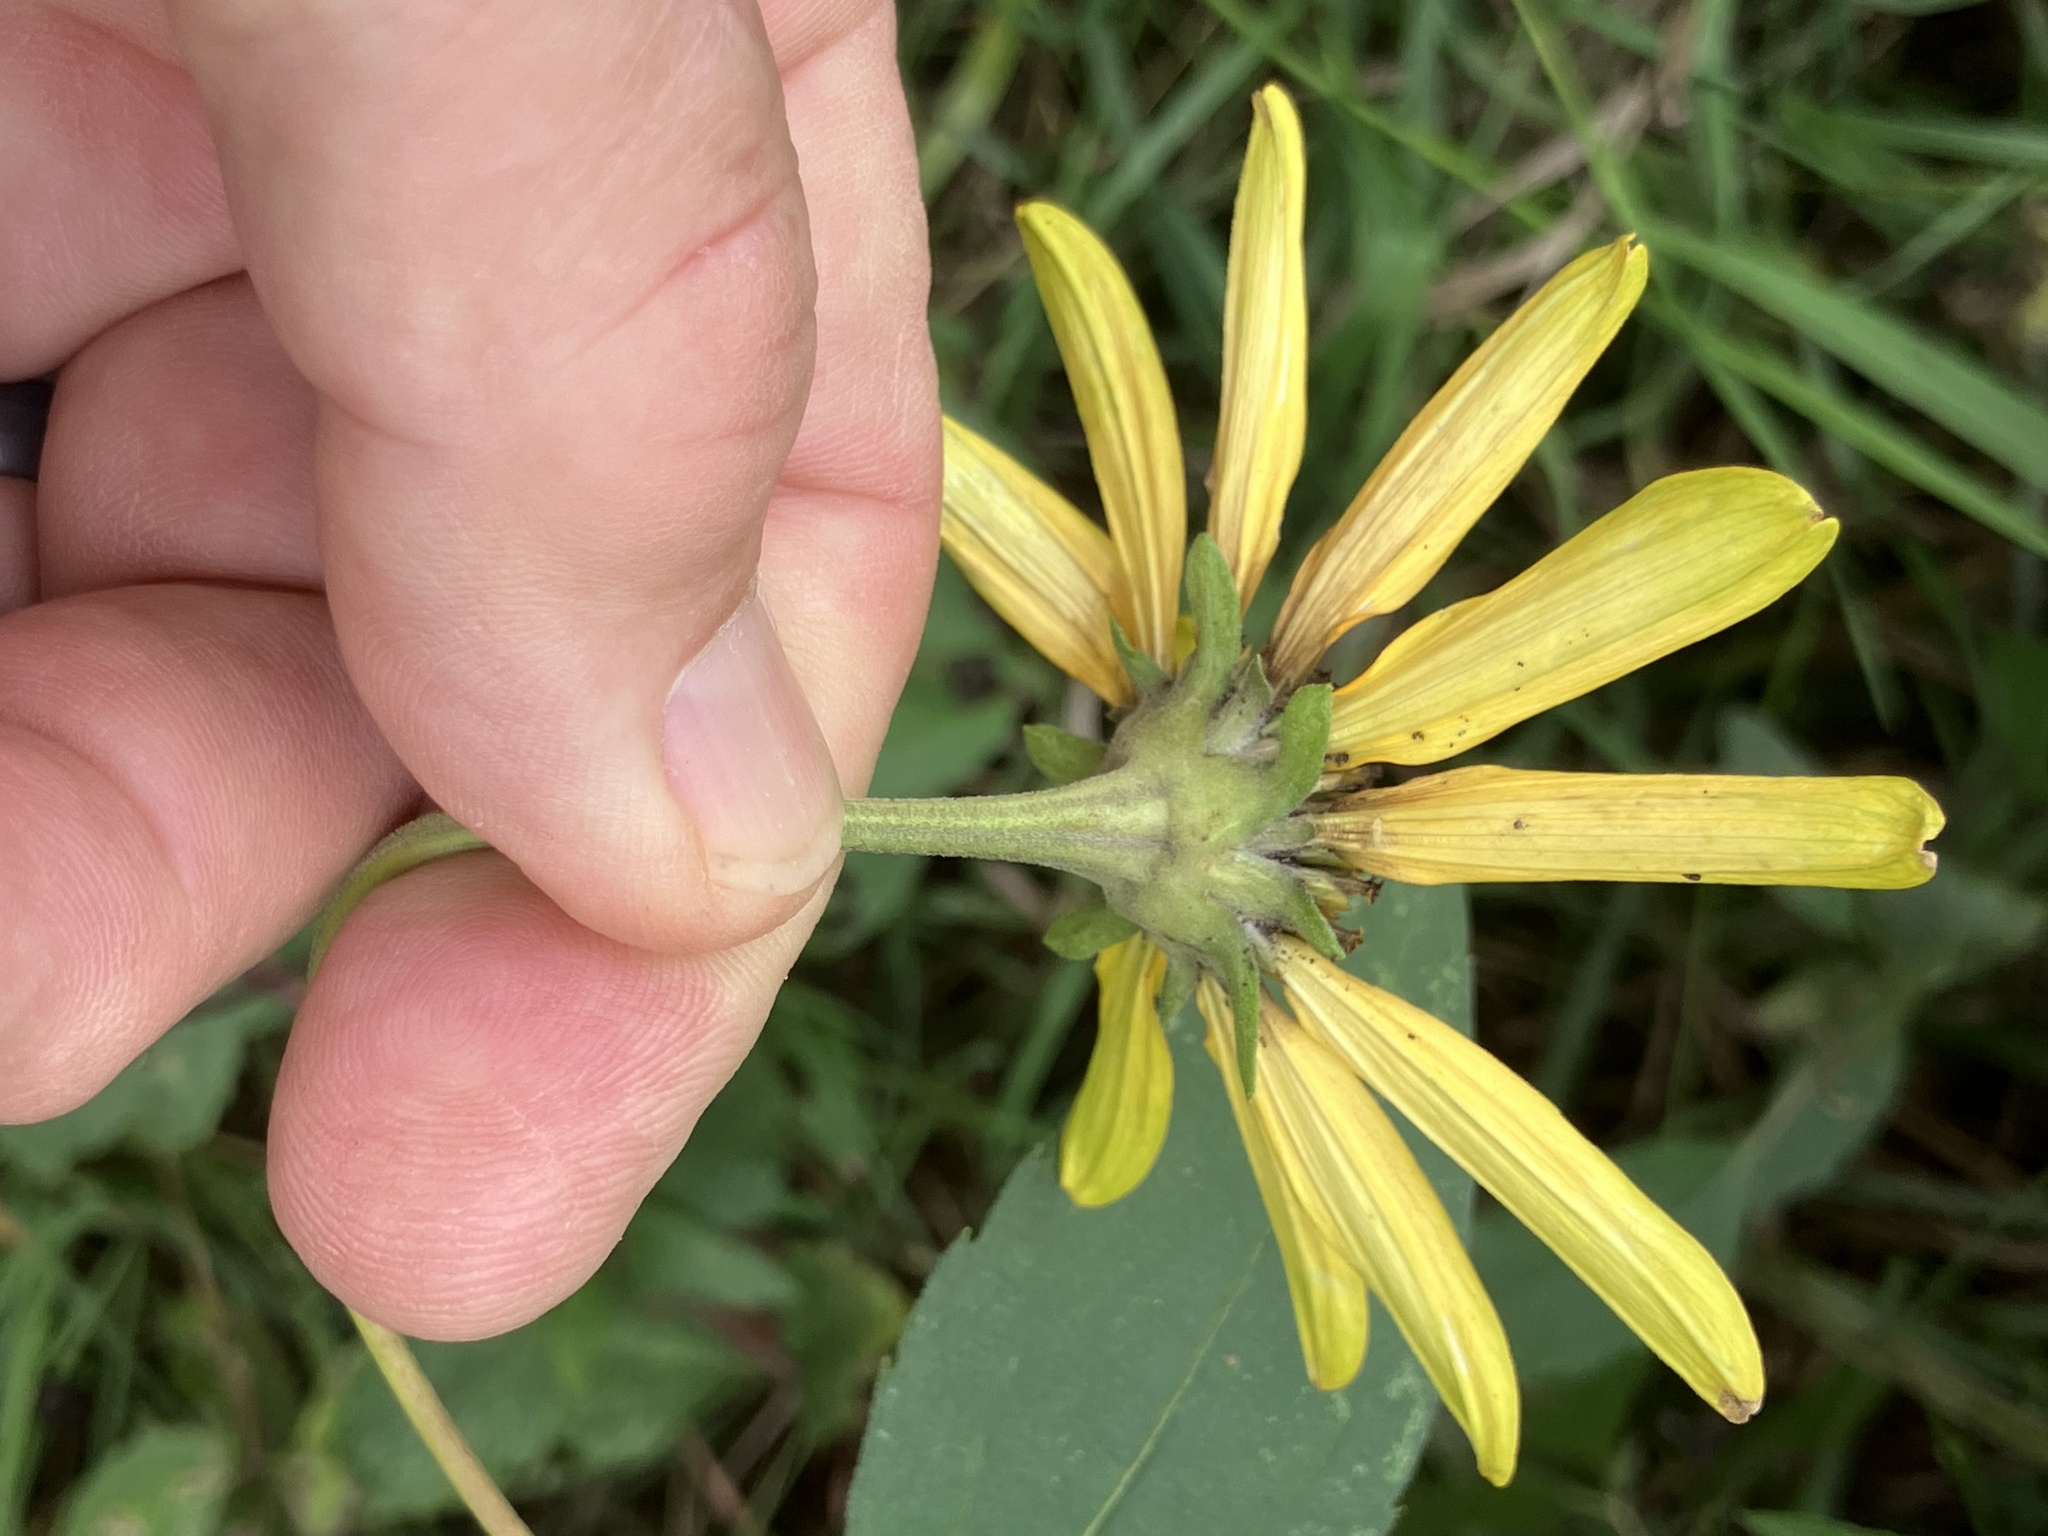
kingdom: Plantae
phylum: Tracheophyta
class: Magnoliopsida
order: Asterales
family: Asteraceae
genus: Heliopsis
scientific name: Heliopsis helianthoides
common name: False sunflower
